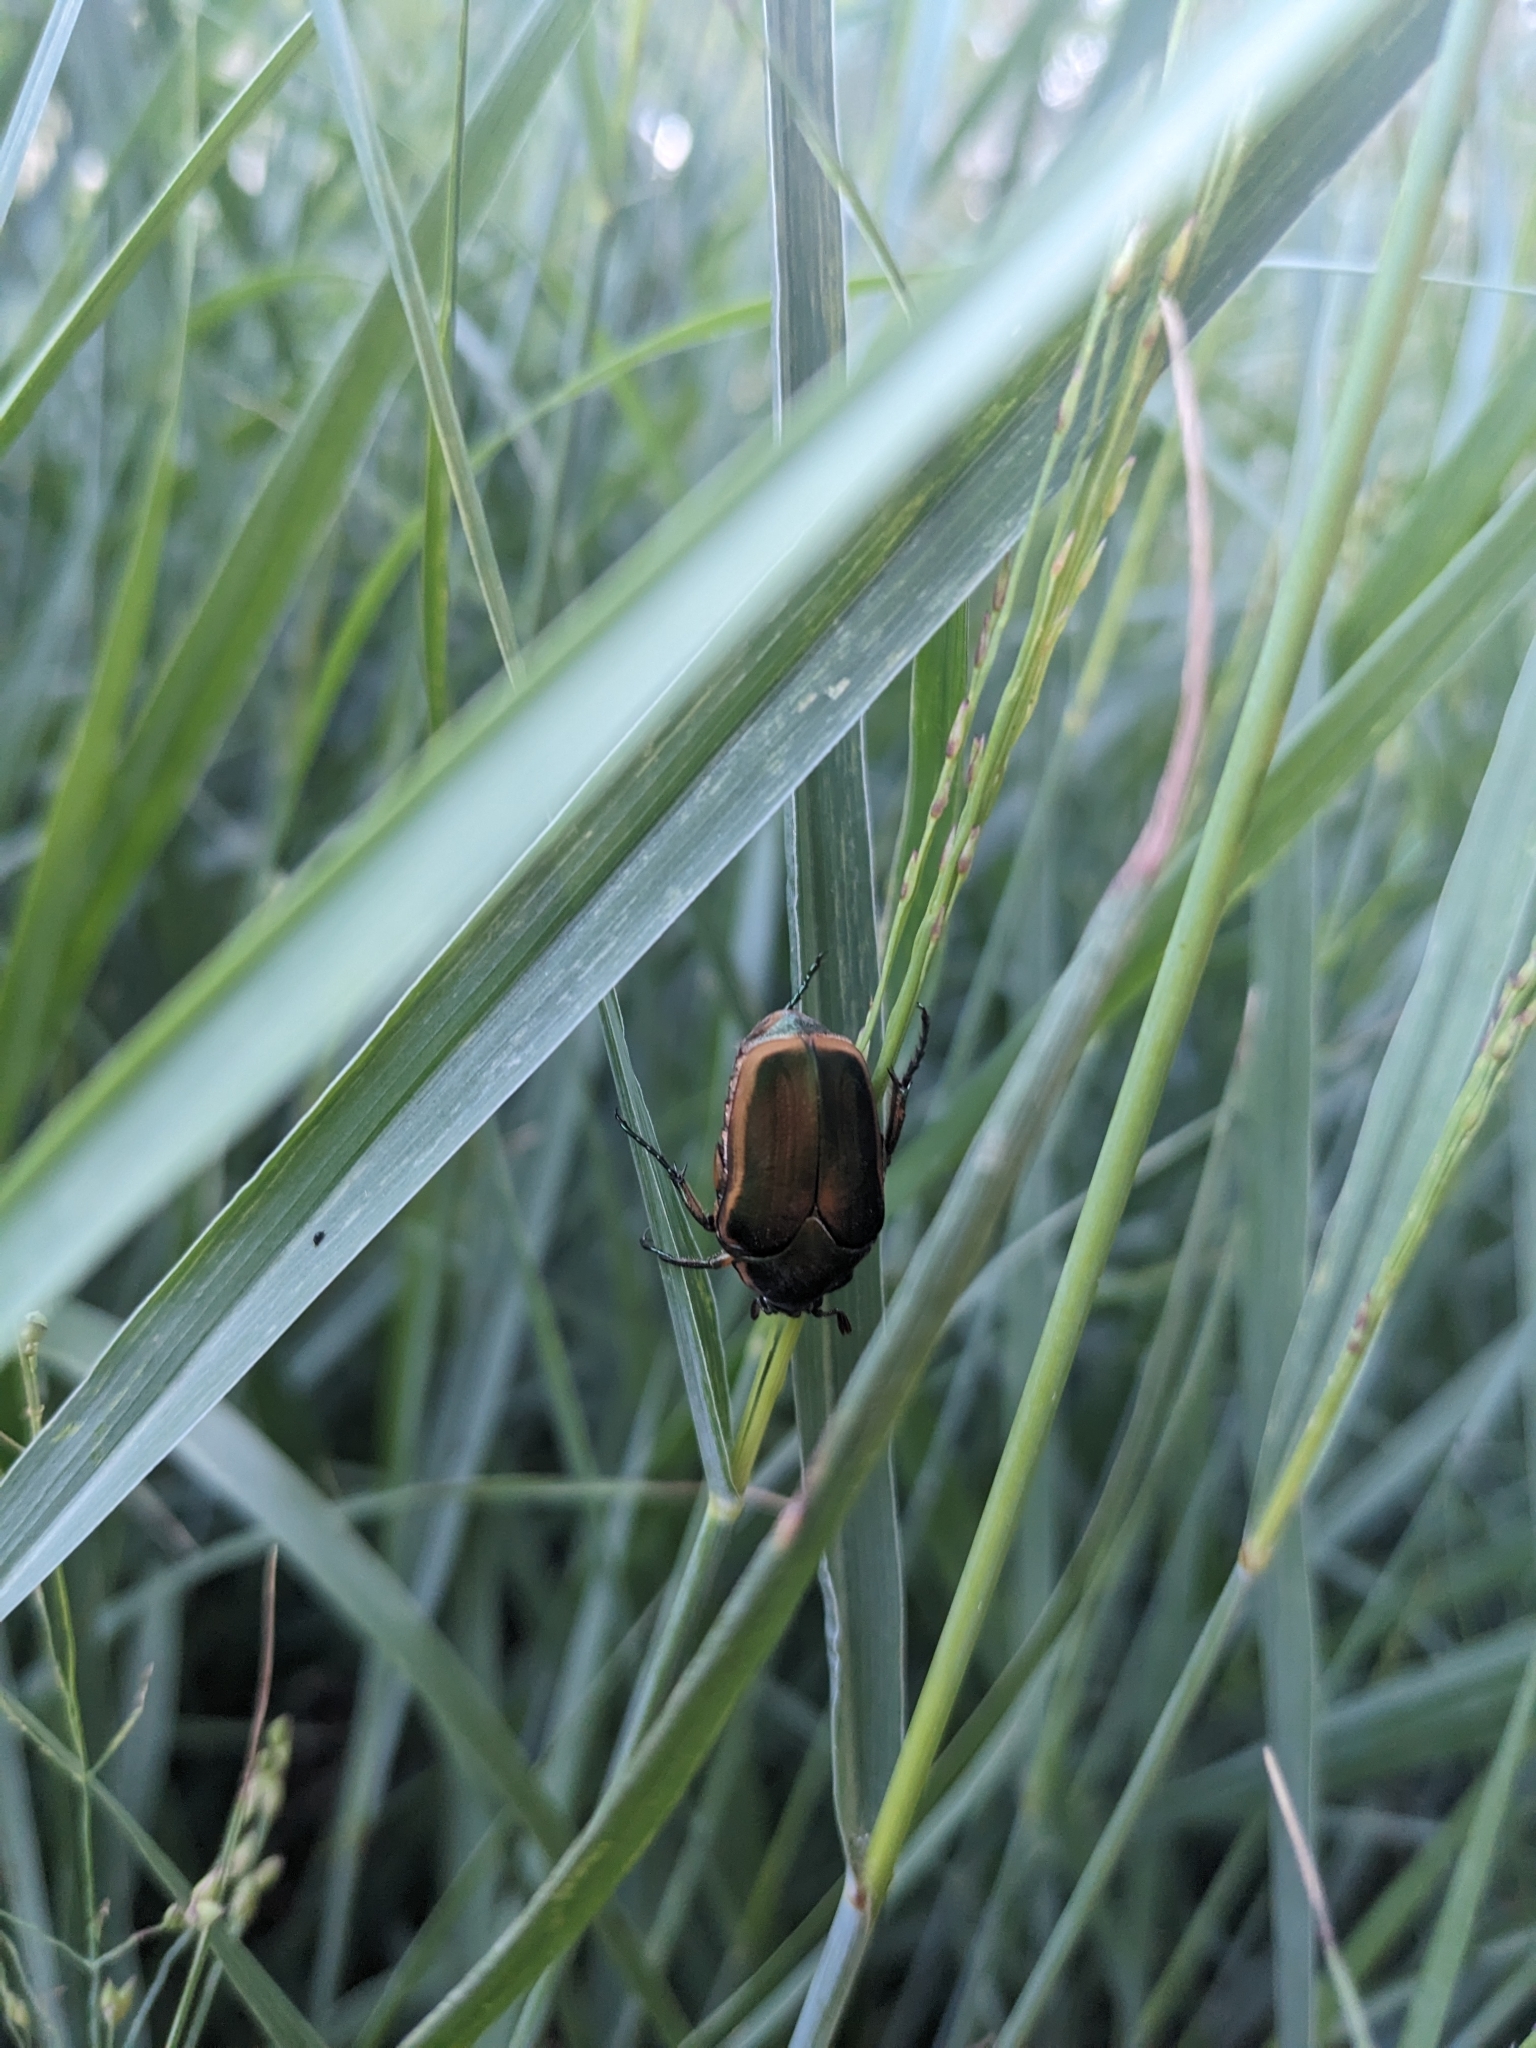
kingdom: Animalia
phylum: Arthropoda
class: Insecta
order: Coleoptera
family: Scarabaeidae
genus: Cotinis
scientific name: Cotinis nitida
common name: Common green june beetle
